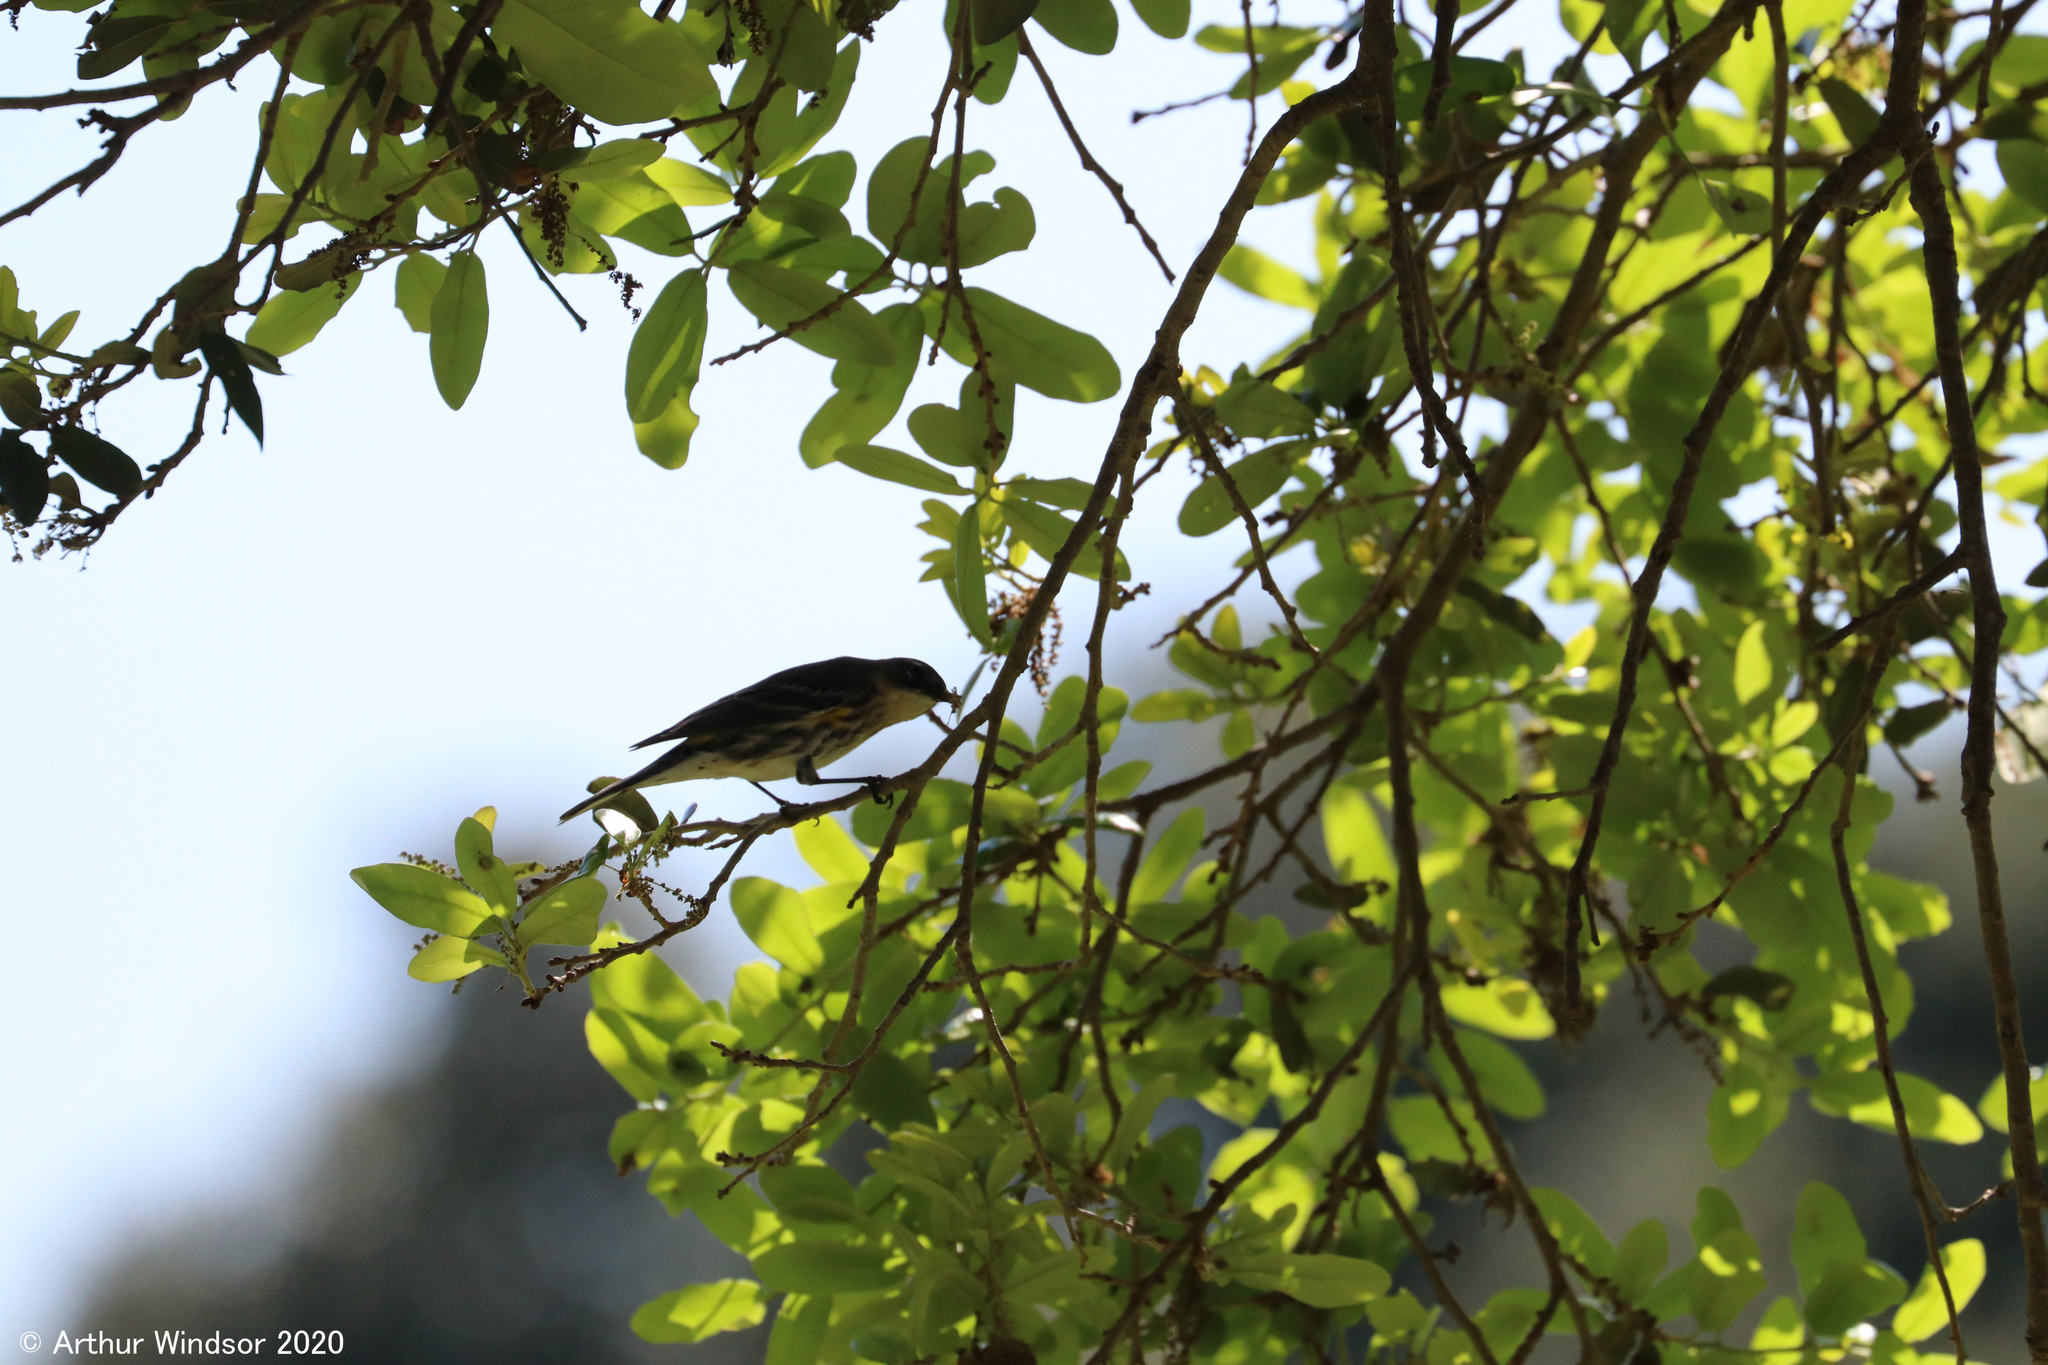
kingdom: Animalia
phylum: Chordata
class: Aves
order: Passeriformes
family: Parulidae
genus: Setophaga
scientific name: Setophaga coronata
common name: Myrtle warbler
